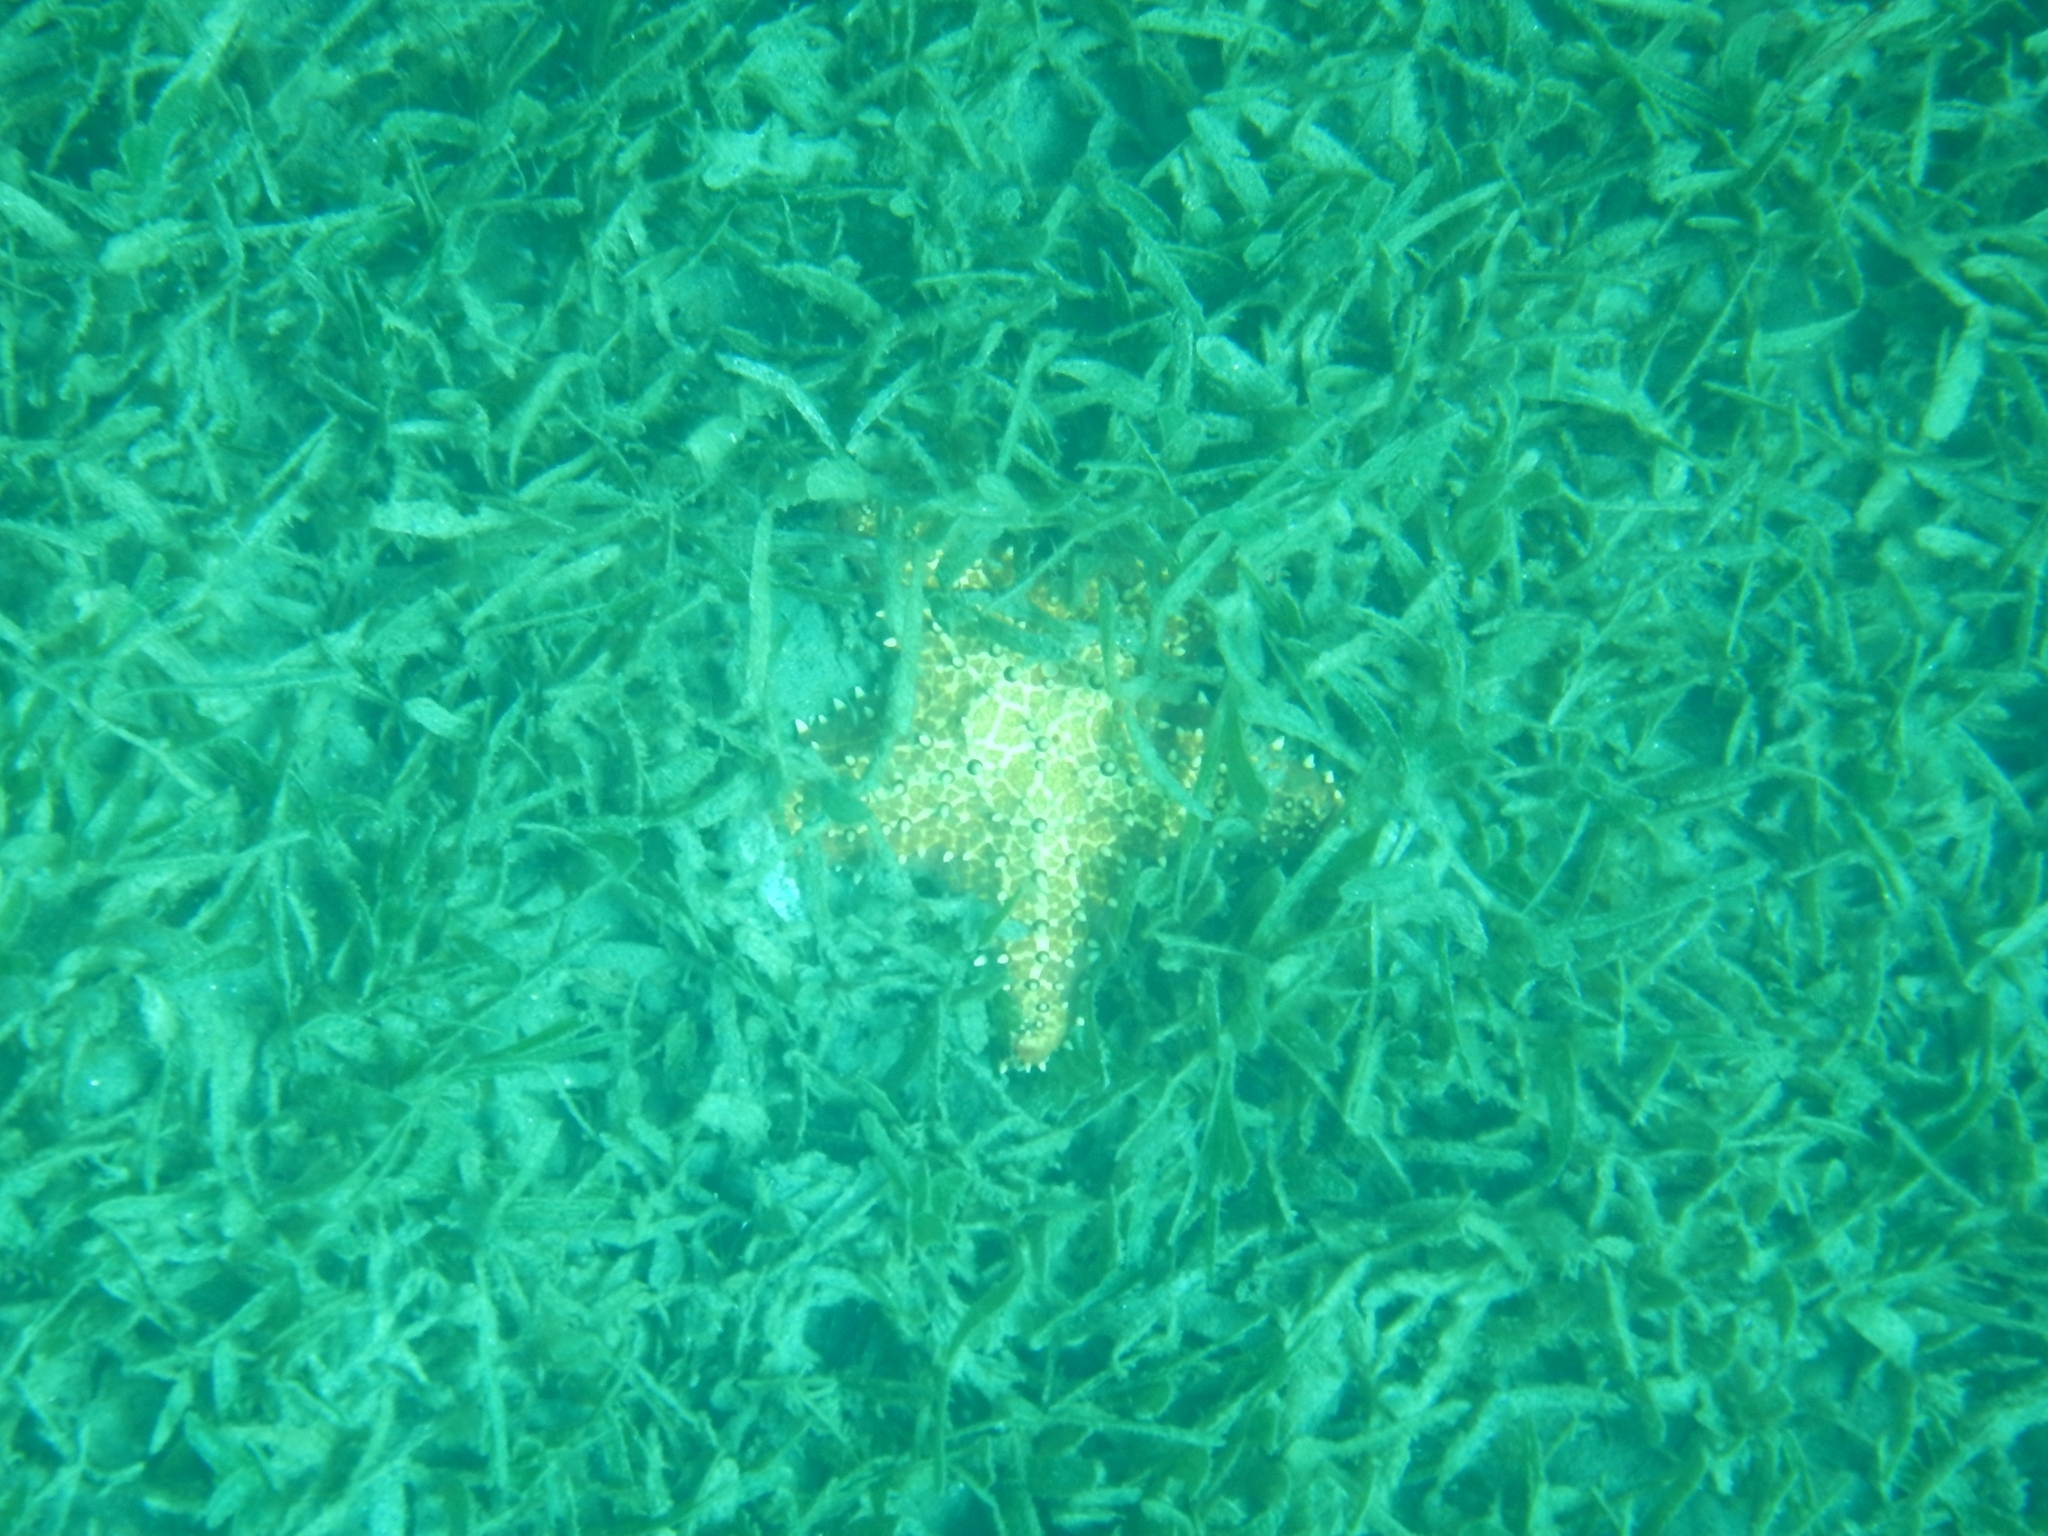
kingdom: Animalia
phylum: Echinodermata
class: Asteroidea
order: Valvatida
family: Oreasteridae
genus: Oreaster
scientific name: Oreaster reticulatus
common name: Cushion sea star
